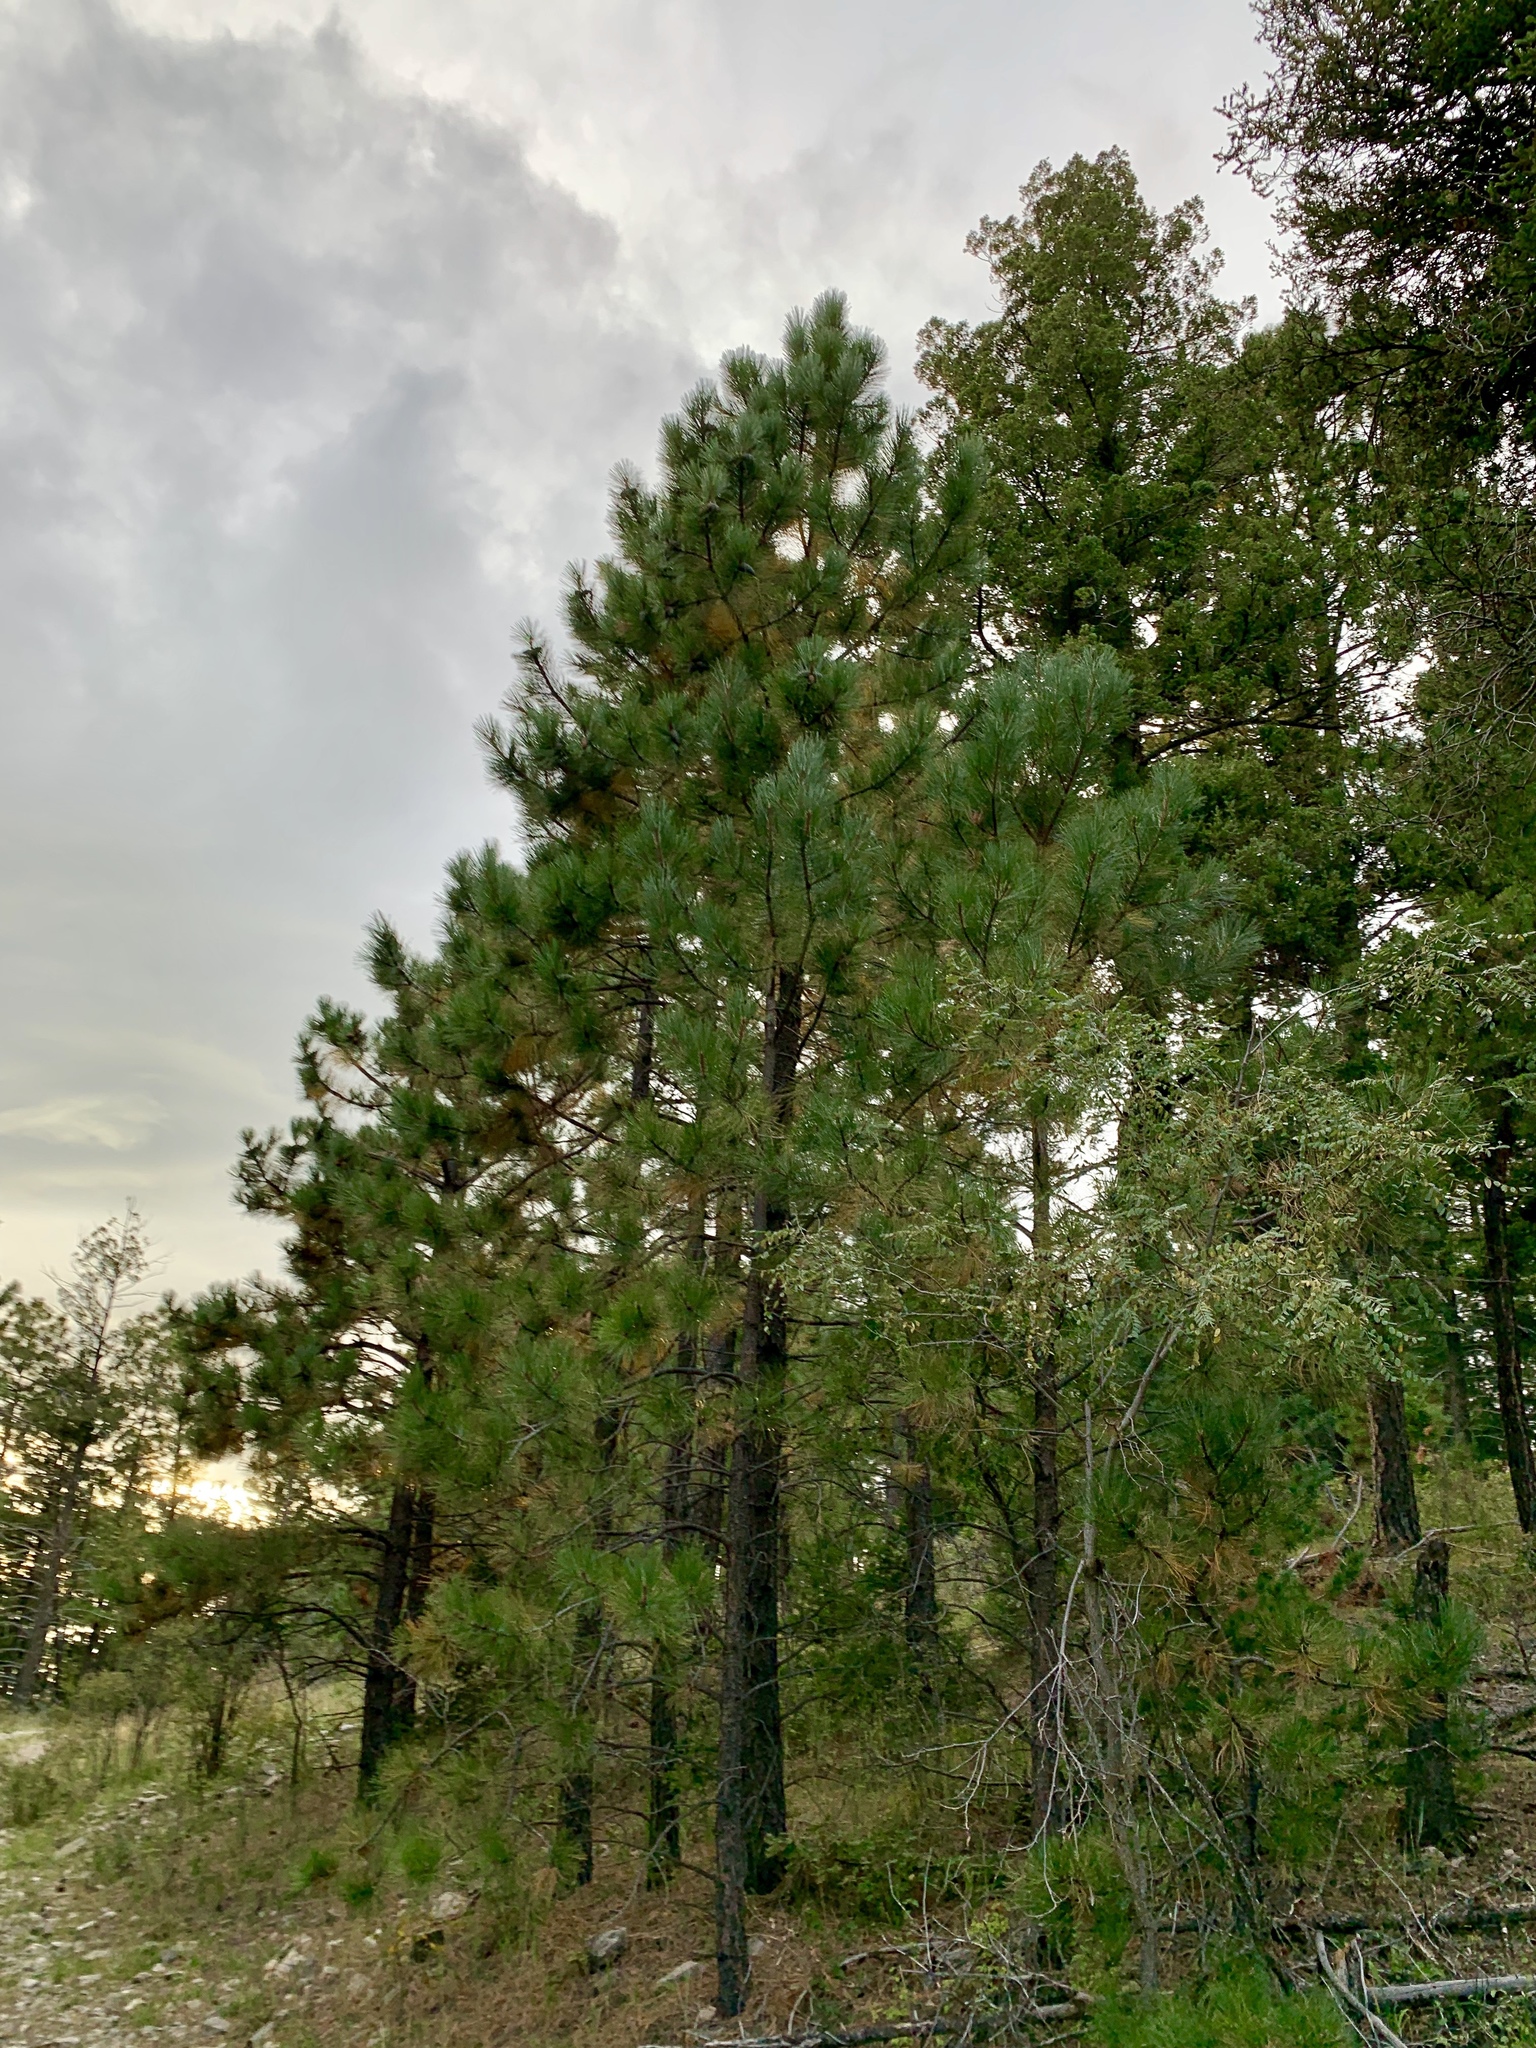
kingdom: Plantae
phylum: Tracheophyta
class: Pinopsida
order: Pinales
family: Pinaceae
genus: Pinus
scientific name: Pinus ponderosa
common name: Western yellow-pine
